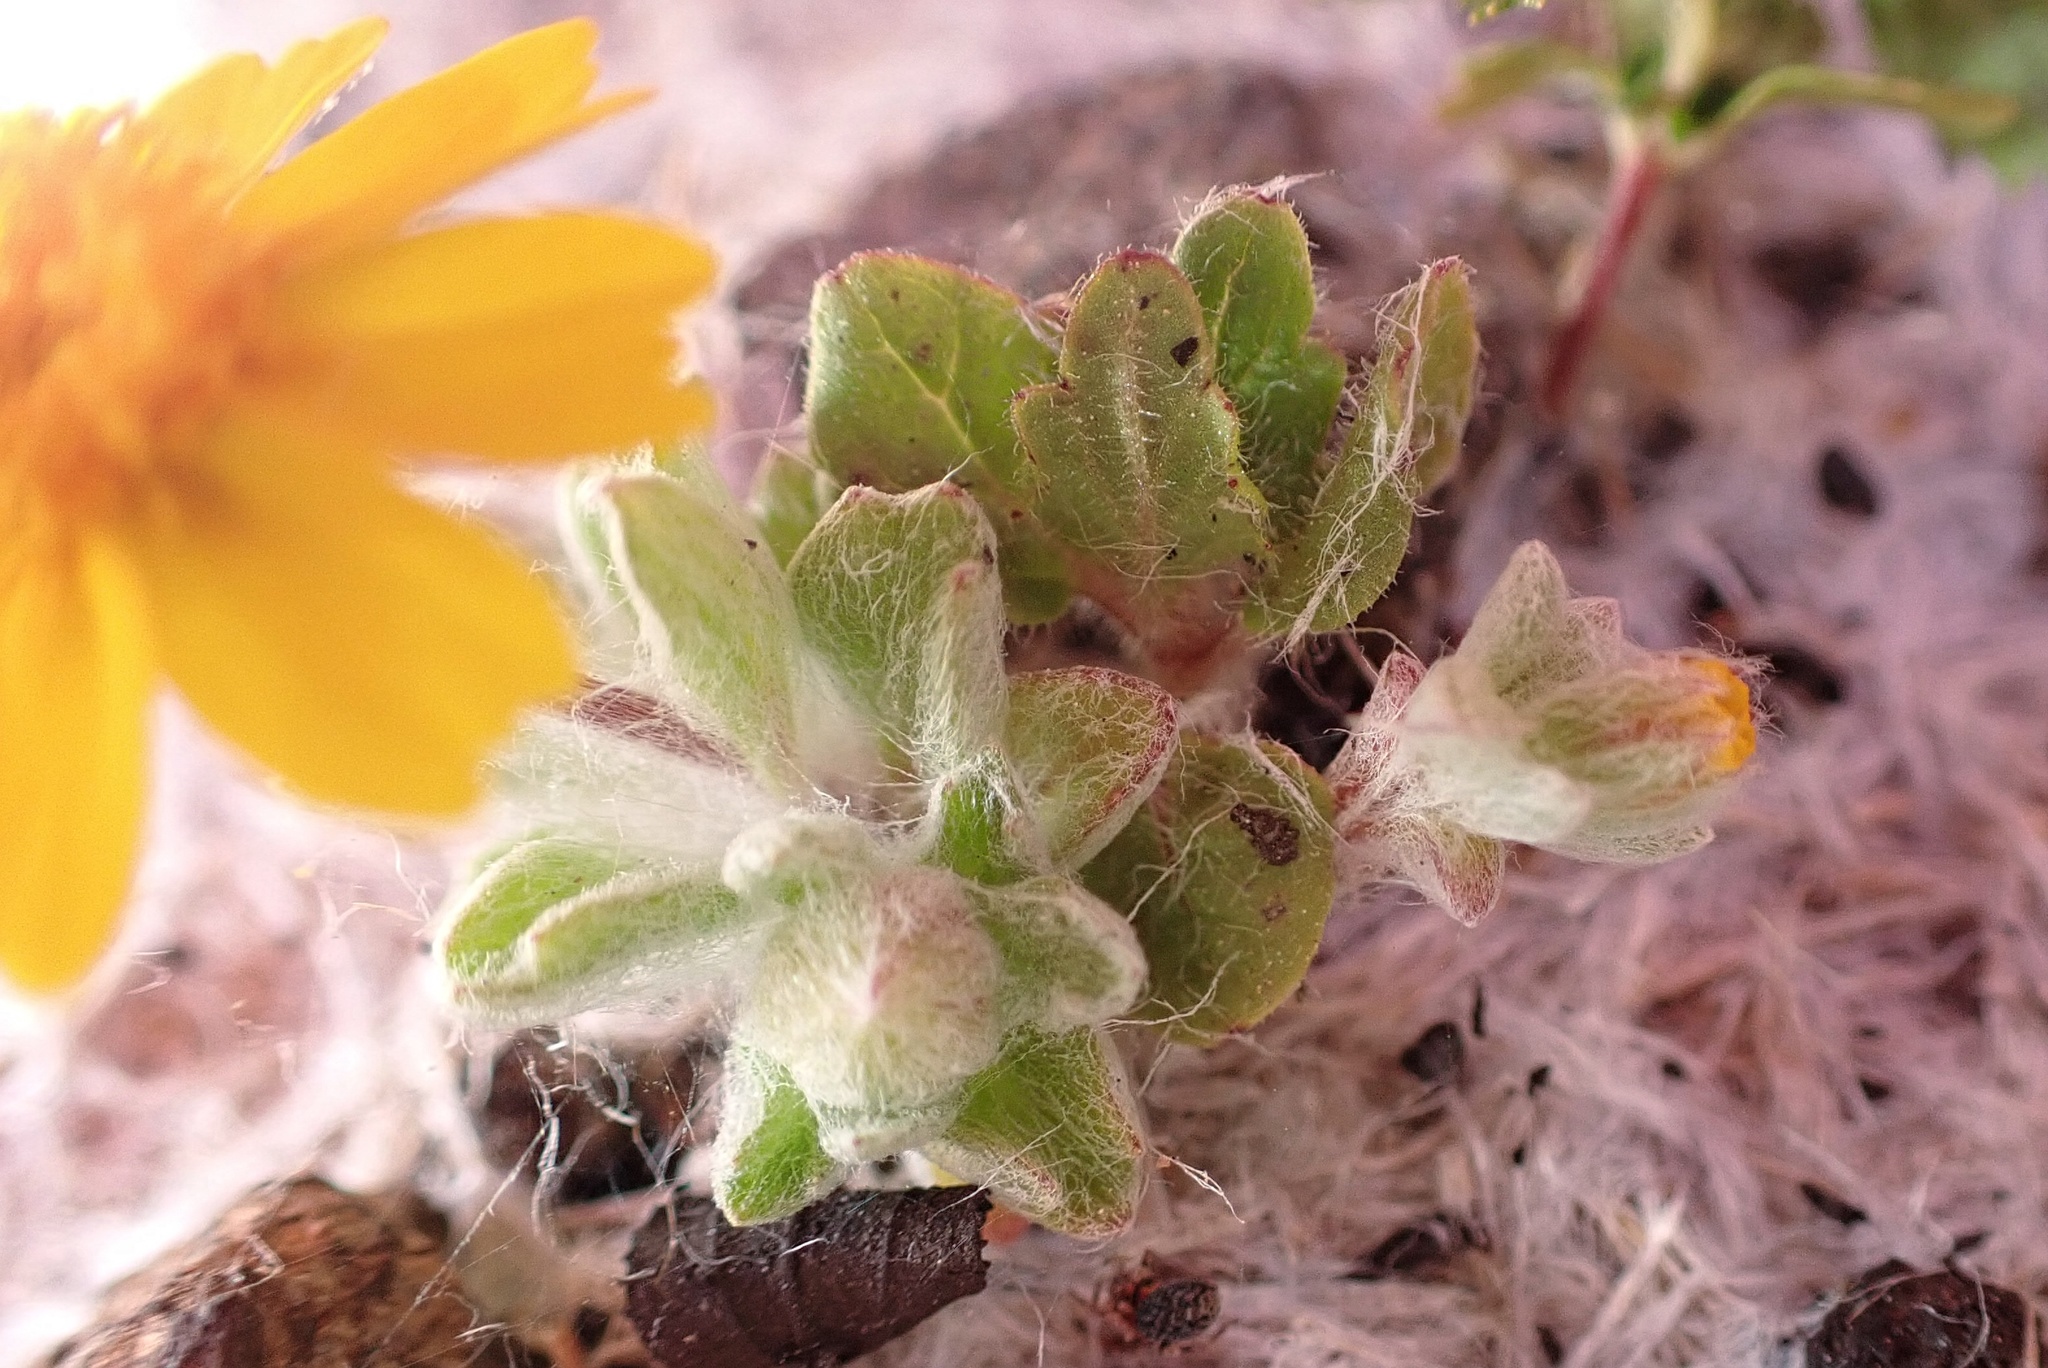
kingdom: Plantae
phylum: Tracheophyta
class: Magnoliopsida
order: Asterales
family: Asteraceae
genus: Eriophyllum
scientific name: Eriophyllum wallacei
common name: Wallace's woolly daisy
